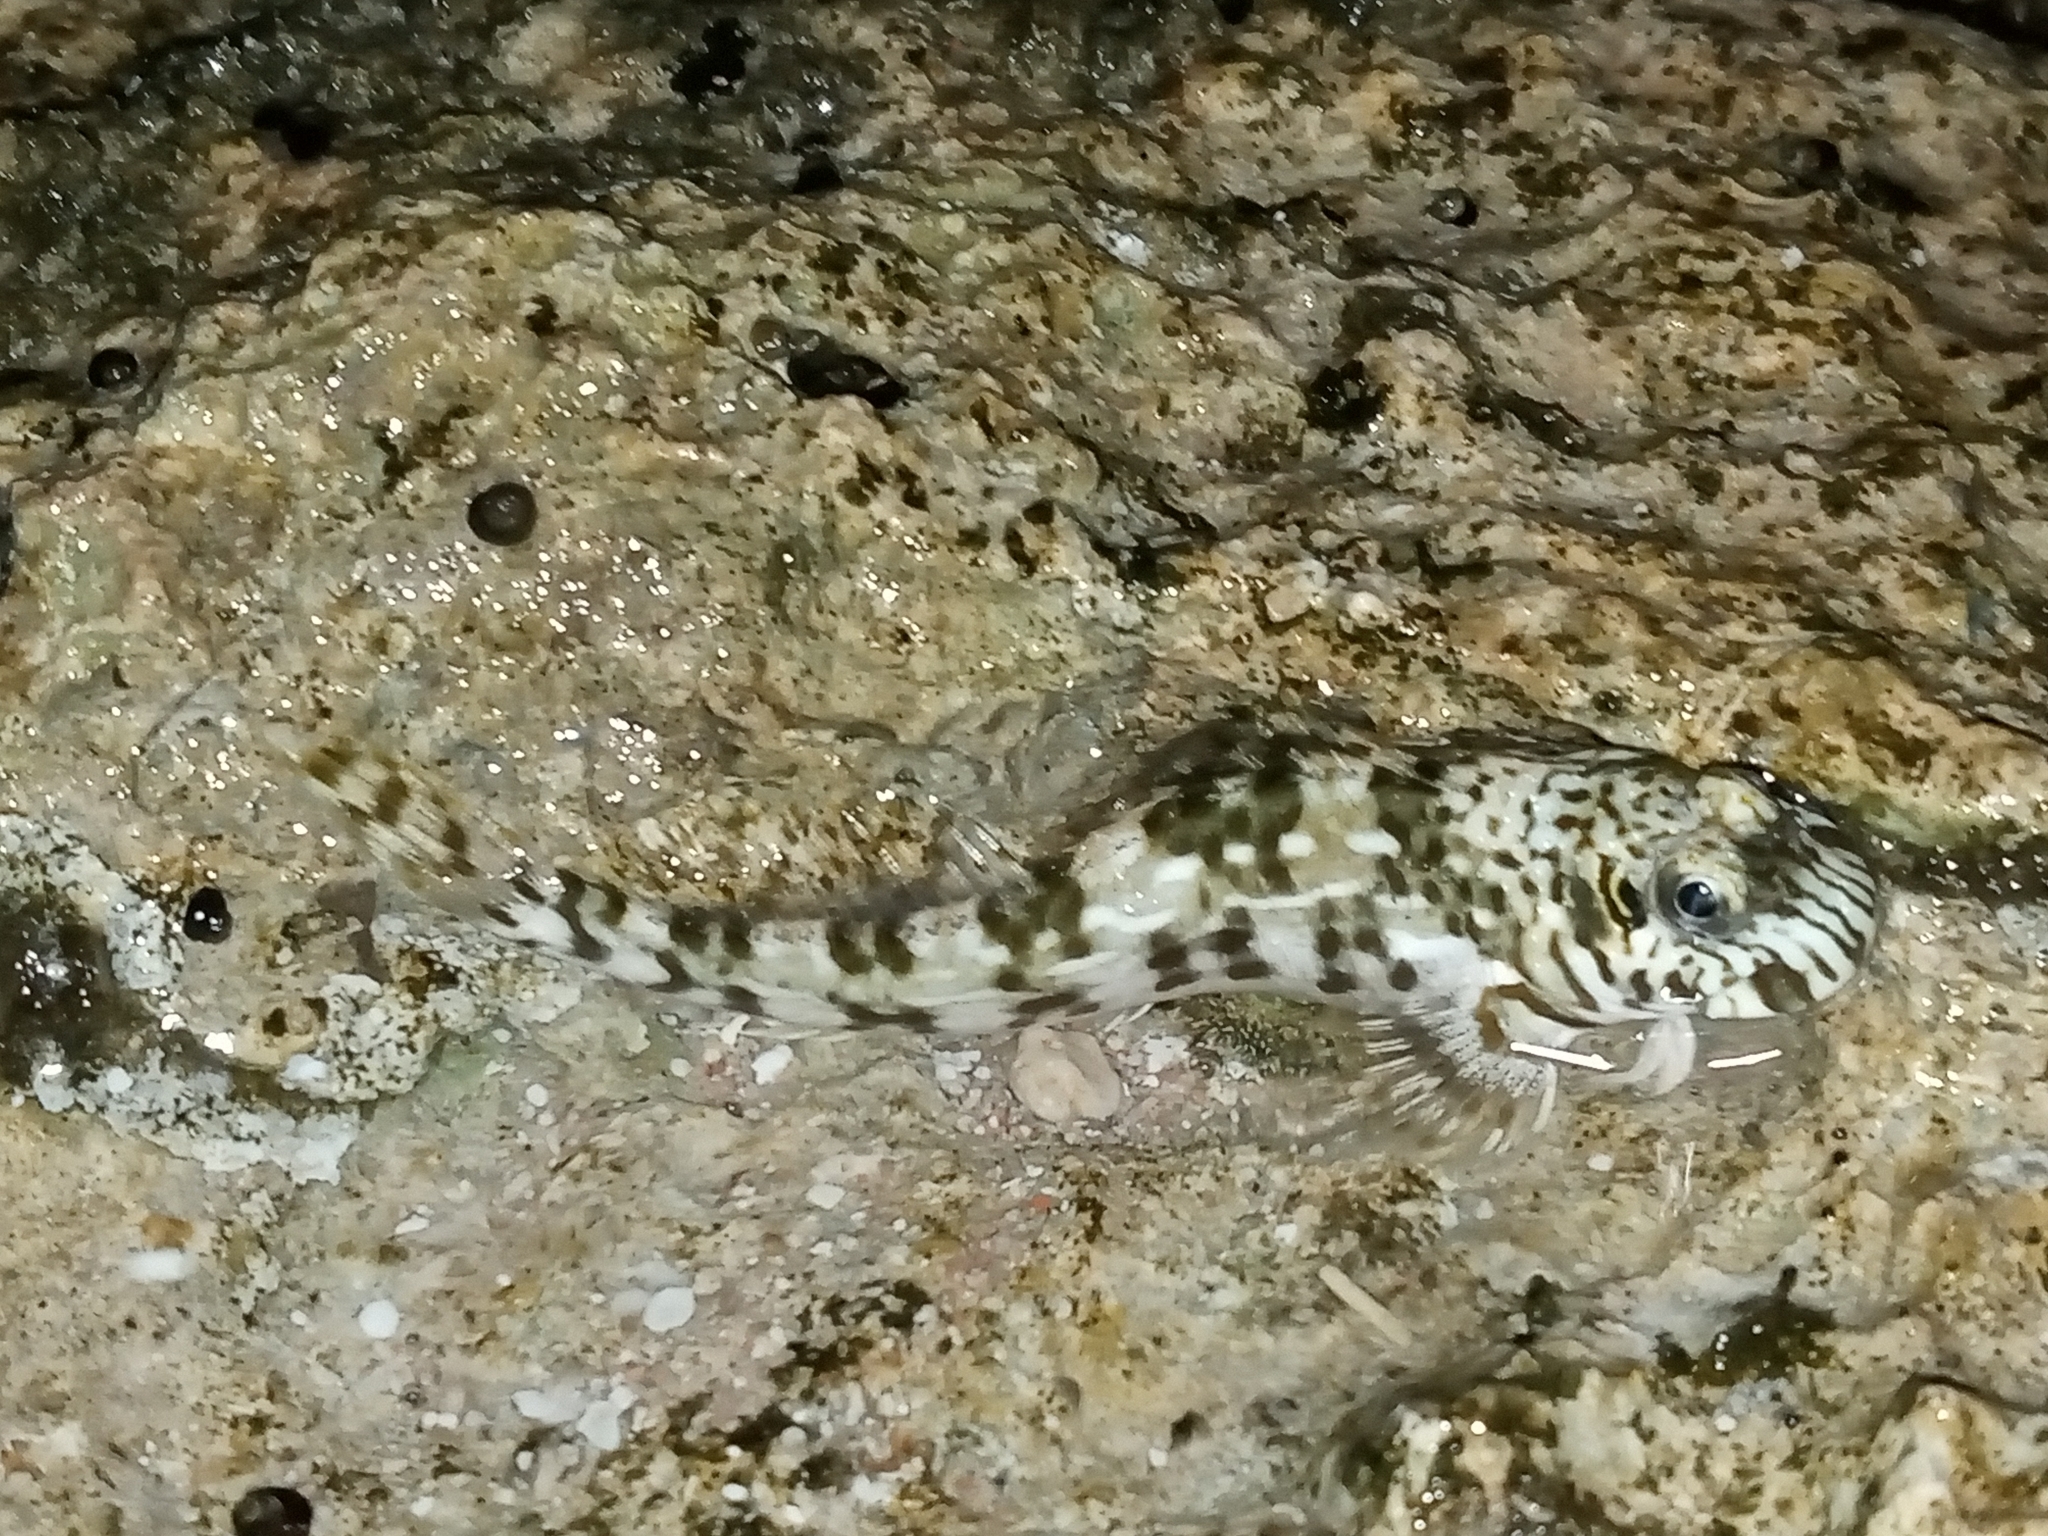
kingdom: Animalia
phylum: Chordata
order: Perciformes
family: Blenniidae
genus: Istiblennius
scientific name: Istiblennius unicolor
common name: Pallid rockskipper
